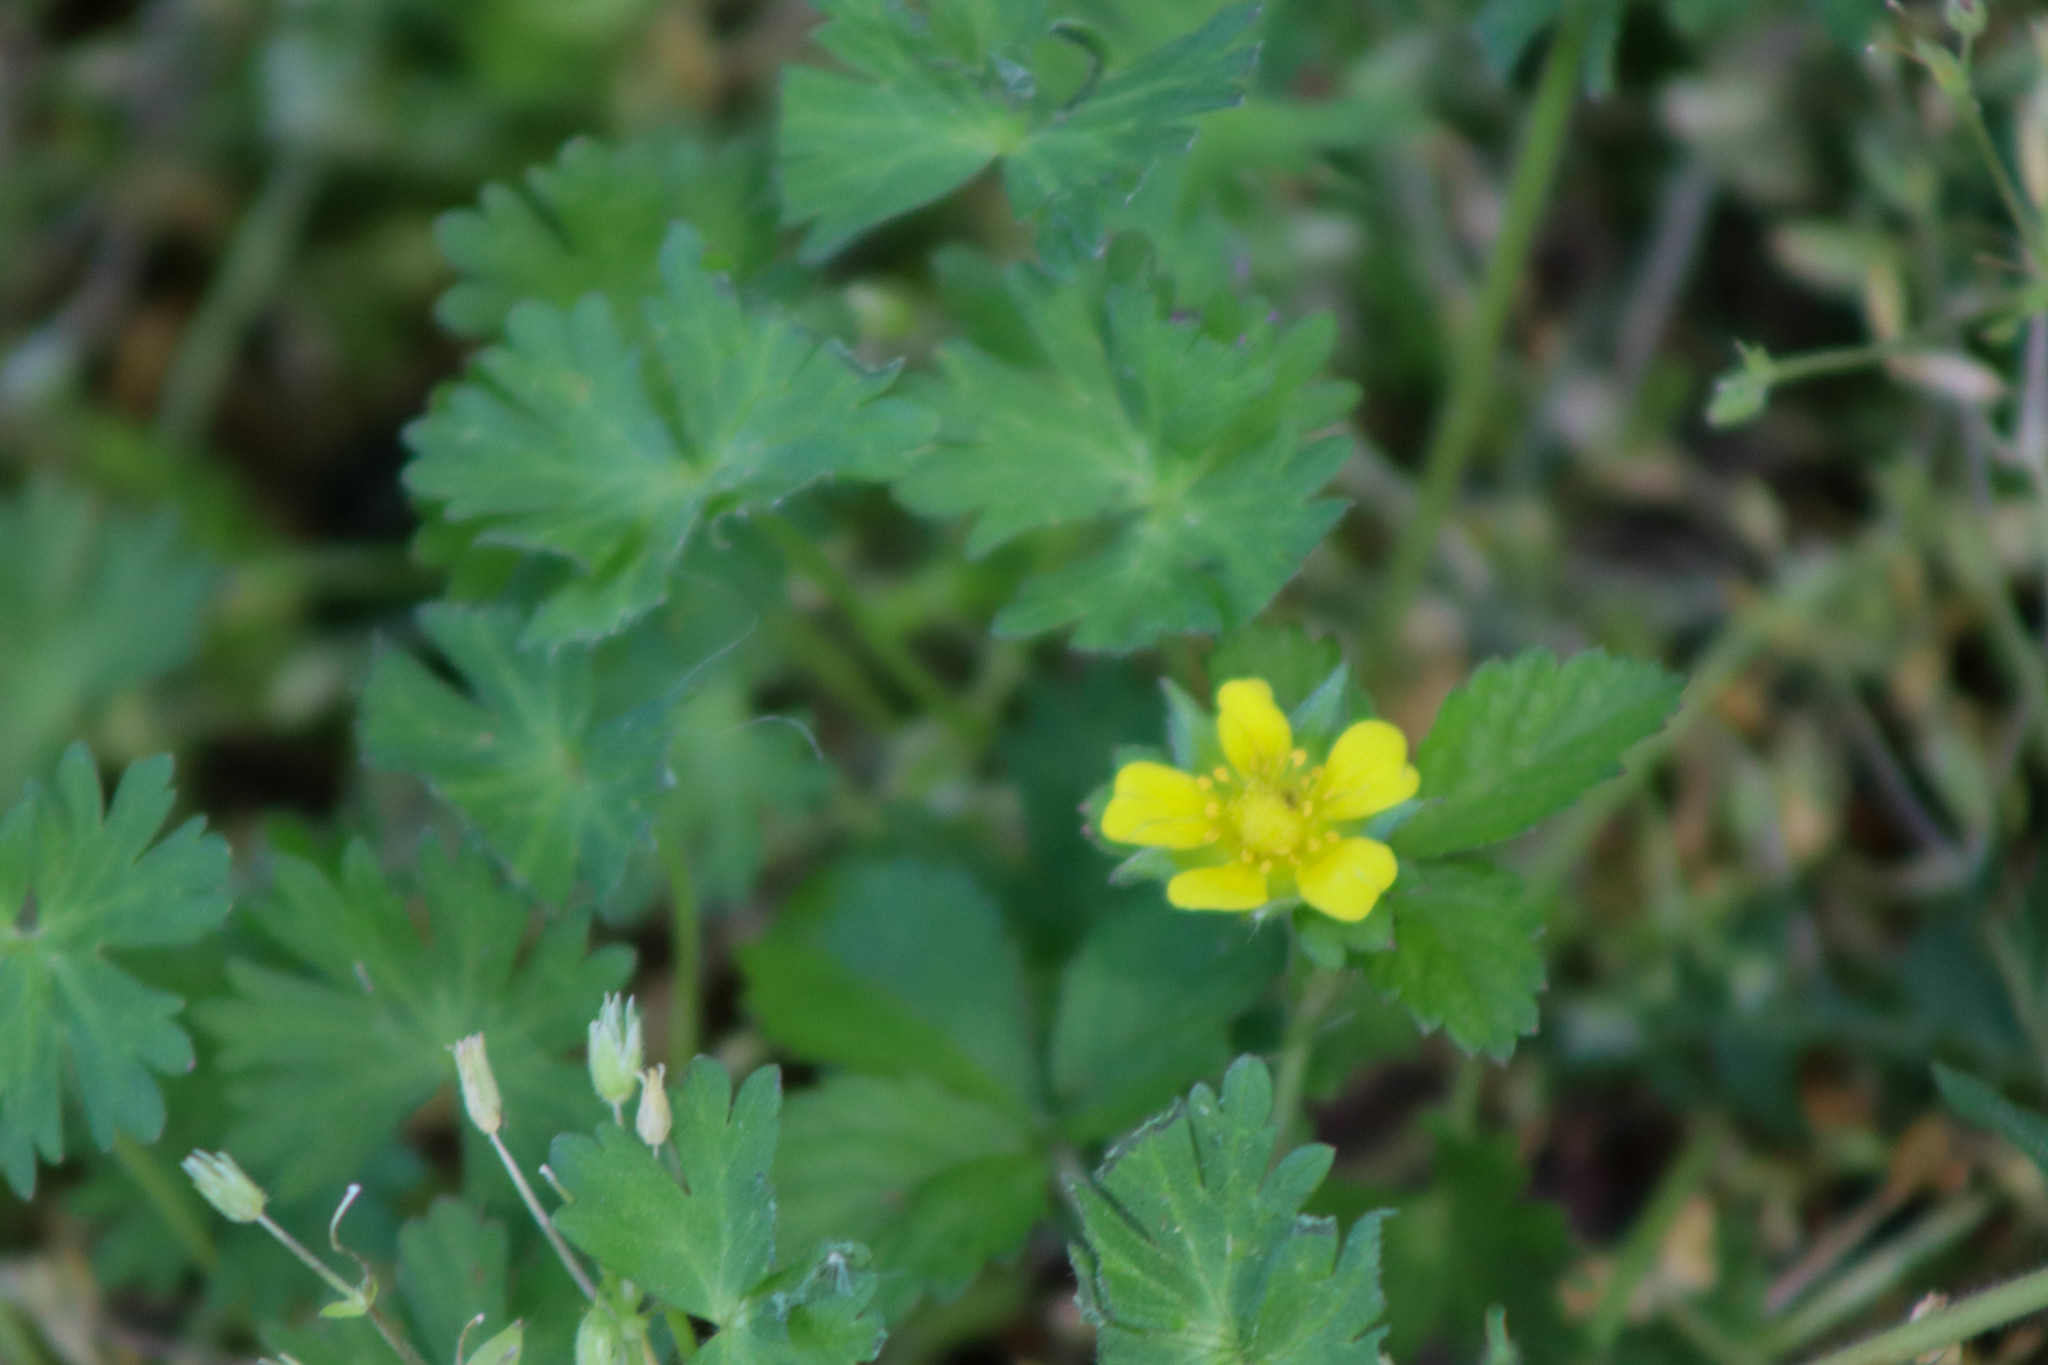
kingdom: Plantae
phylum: Tracheophyta
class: Magnoliopsida
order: Rosales
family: Rosaceae
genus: Potentilla
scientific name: Potentilla indica
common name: Yellow-flowered strawberry
